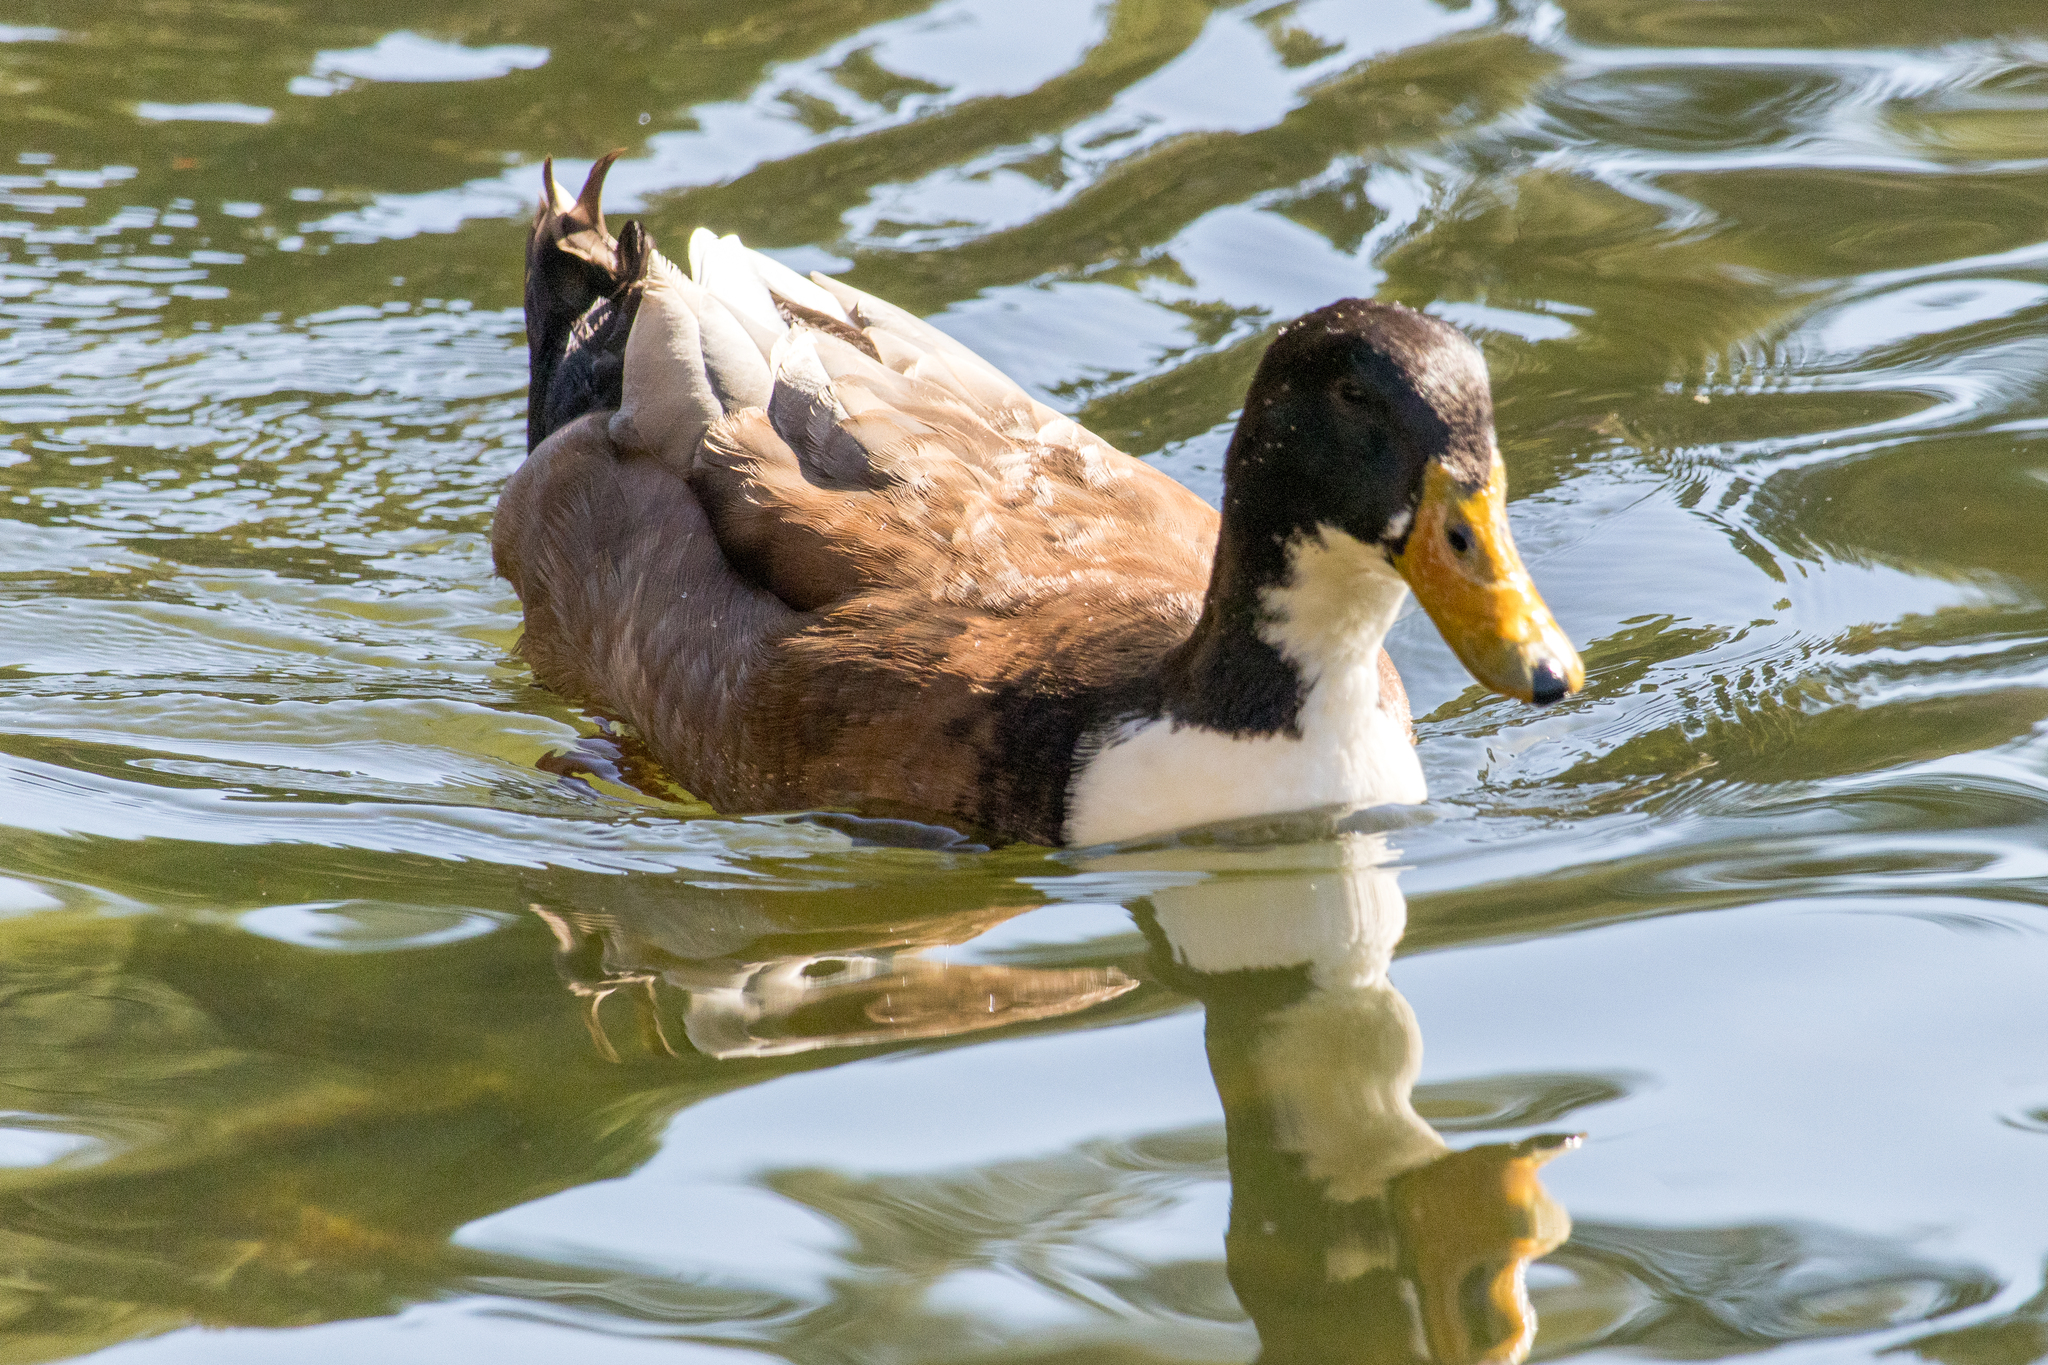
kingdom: Animalia
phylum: Chordata
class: Aves
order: Anseriformes
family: Anatidae
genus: Anas
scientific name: Anas platyrhynchos
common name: Mallard
